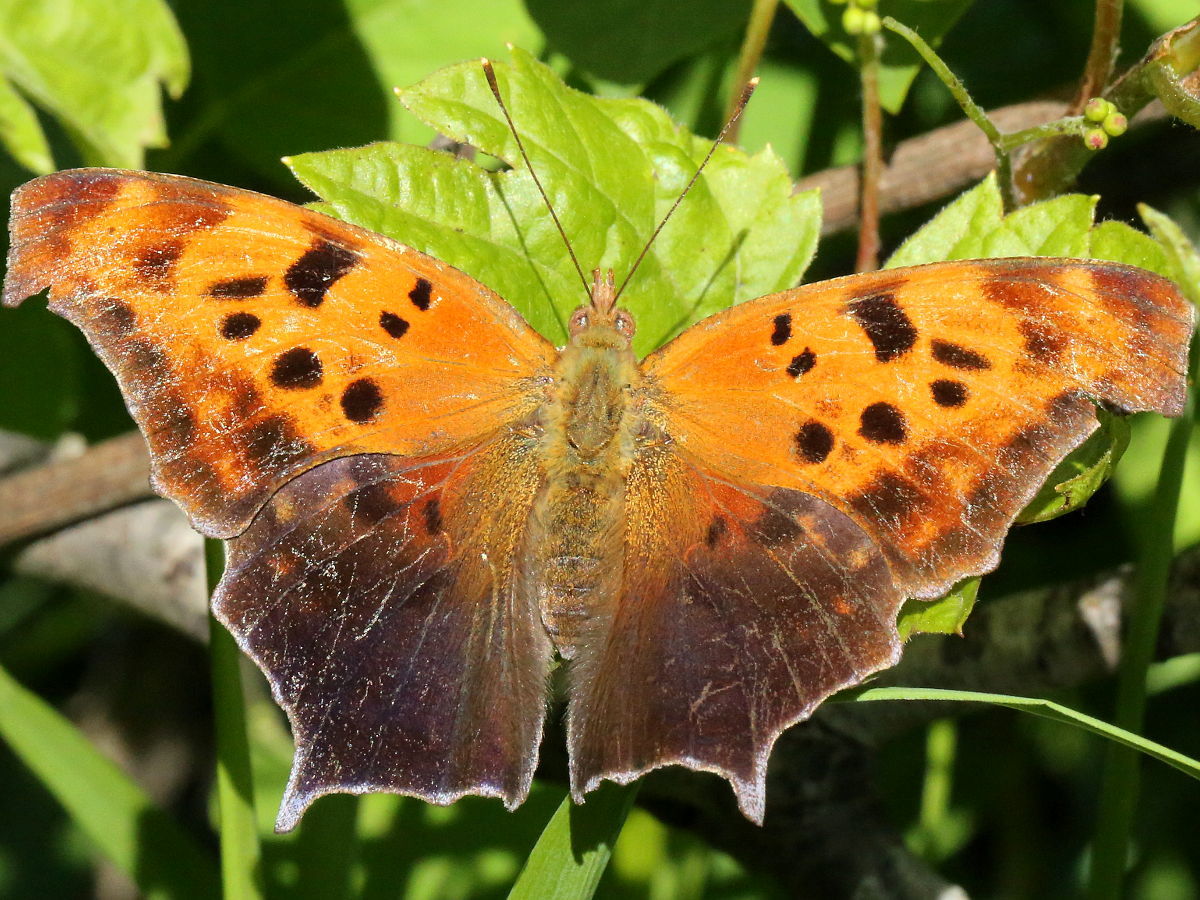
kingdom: Animalia
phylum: Arthropoda
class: Insecta
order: Lepidoptera
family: Nymphalidae
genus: Polygonia
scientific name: Polygonia interrogationis
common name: Question mark
